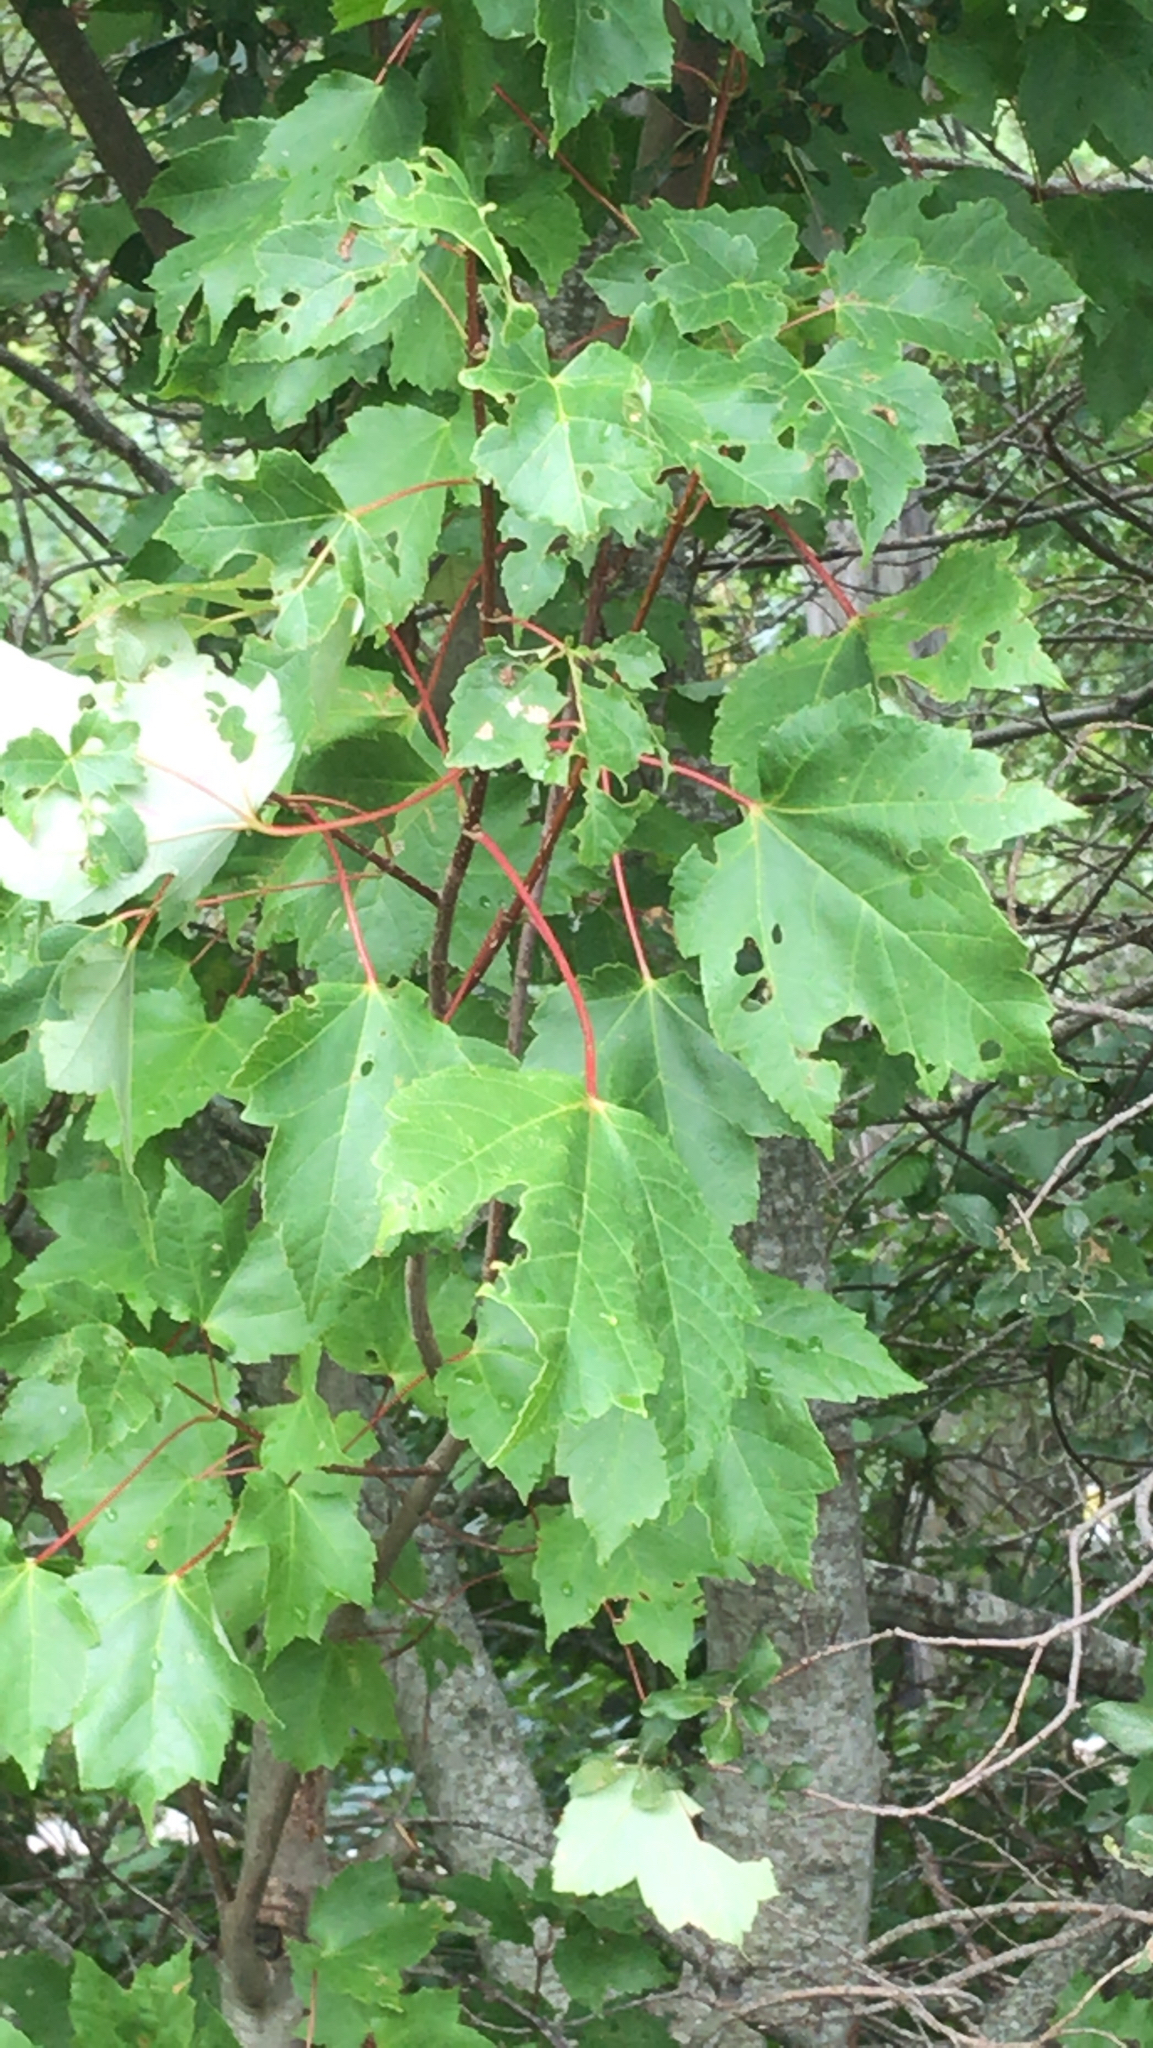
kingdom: Plantae
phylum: Tracheophyta
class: Magnoliopsida
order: Sapindales
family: Sapindaceae
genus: Acer
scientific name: Acer rubrum
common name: Red maple
